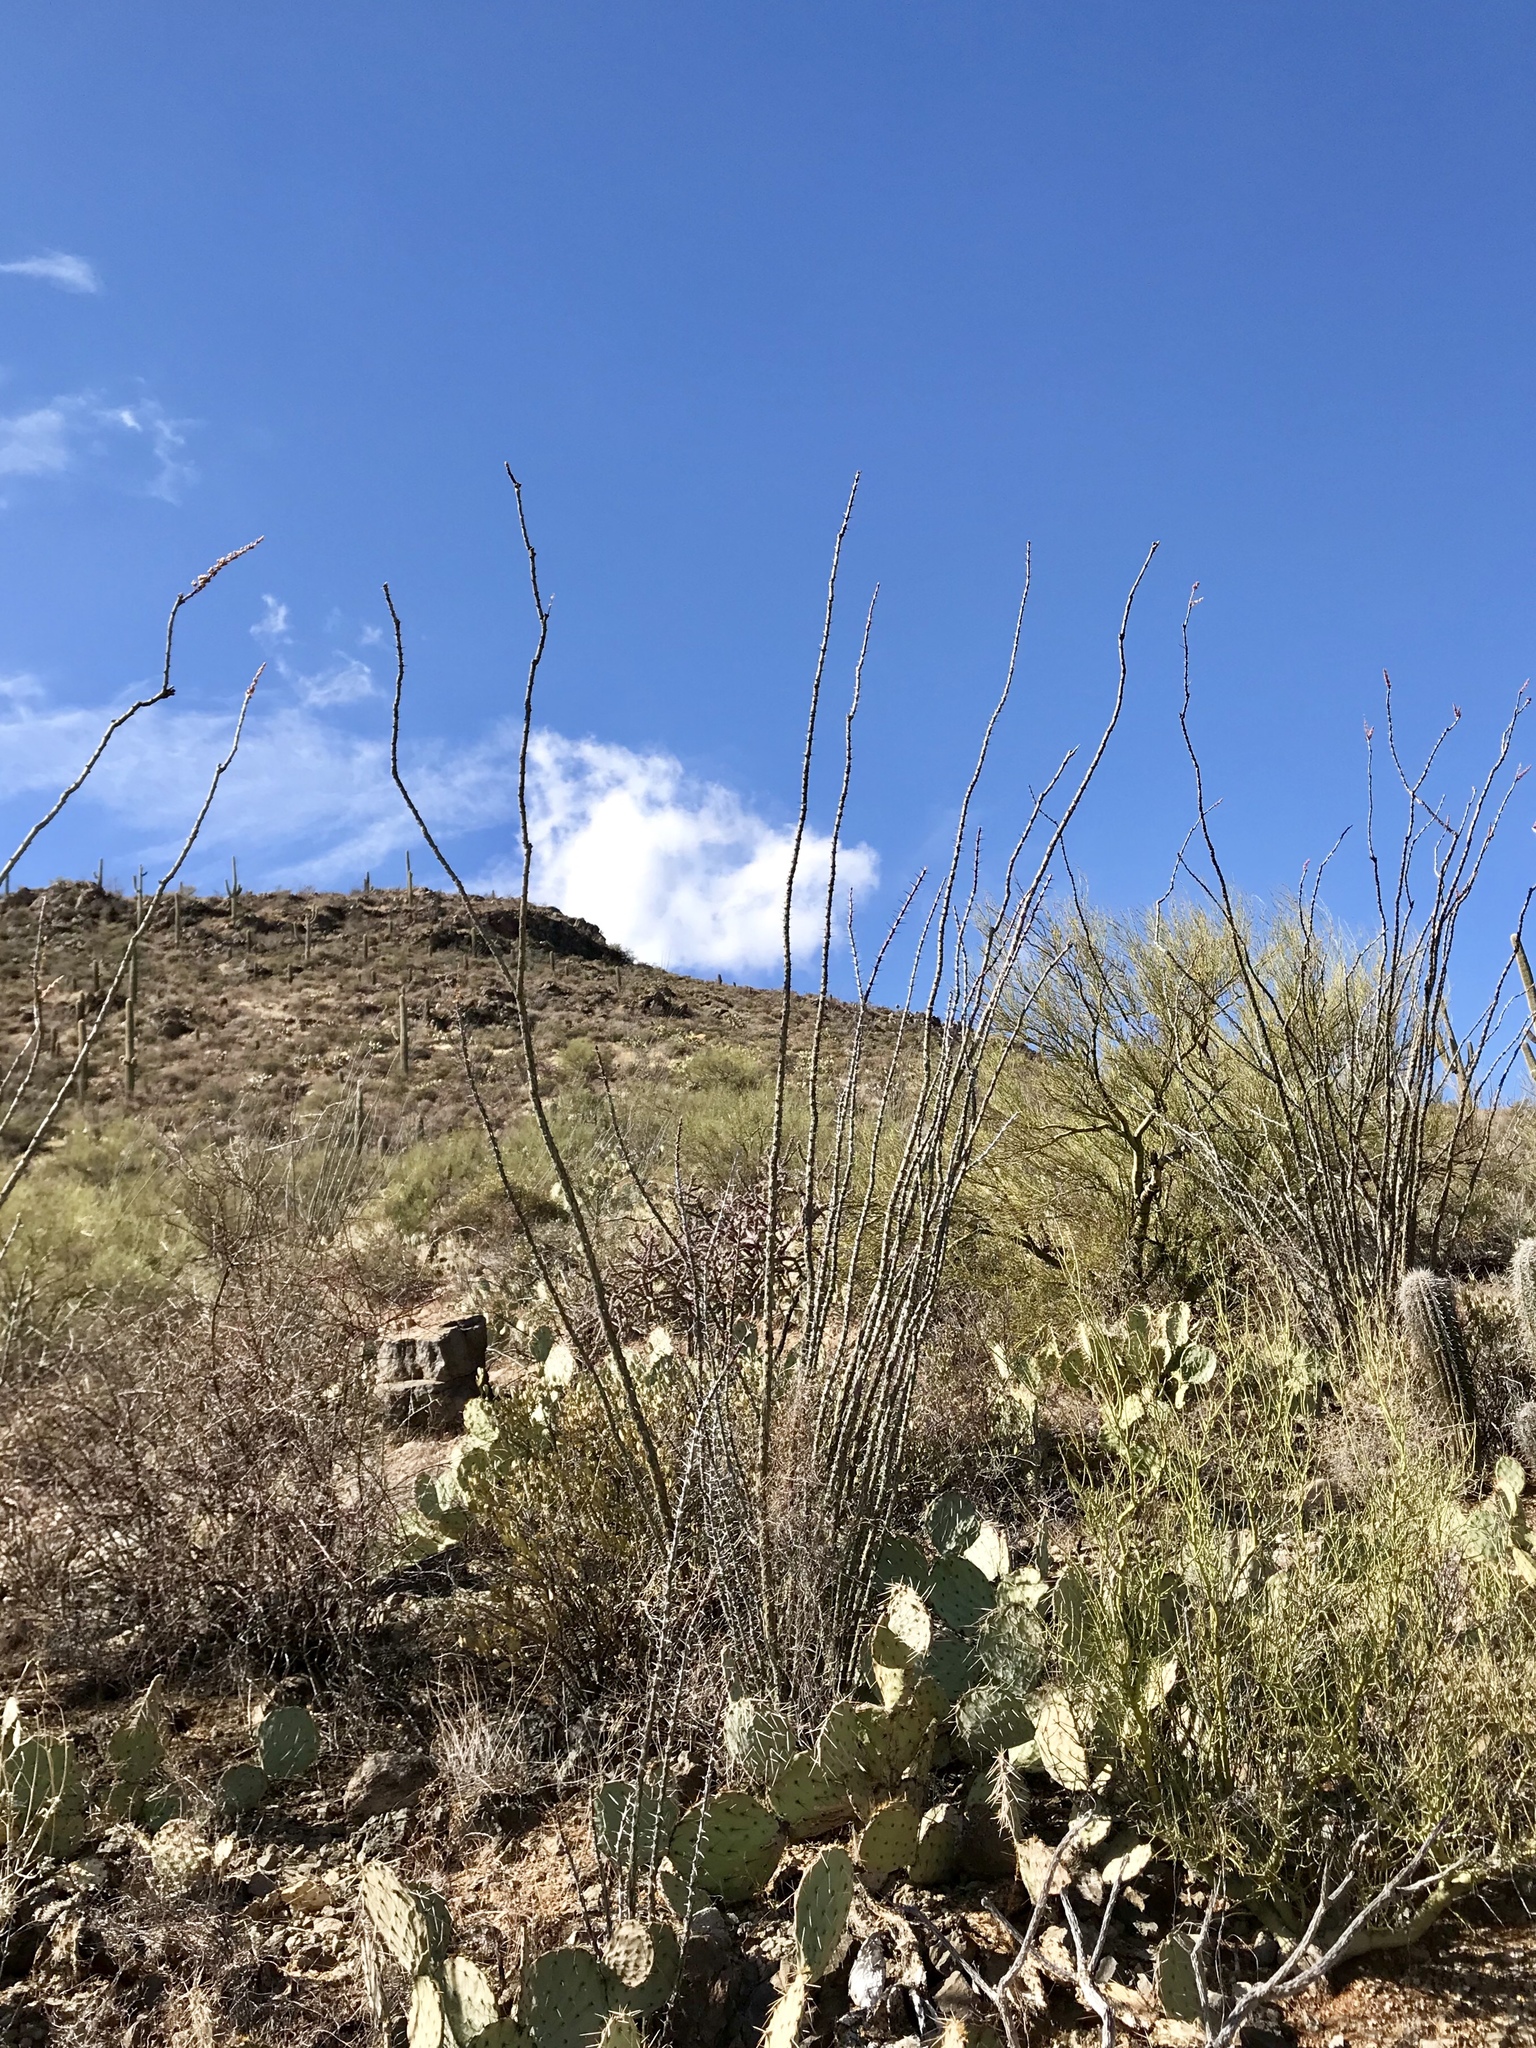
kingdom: Plantae
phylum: Tracheophyta
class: Magnoliopsida
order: Ericales
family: Fouquieriaceae
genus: Fouquieria
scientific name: Fouquieria splendens
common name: Vine-cactus
